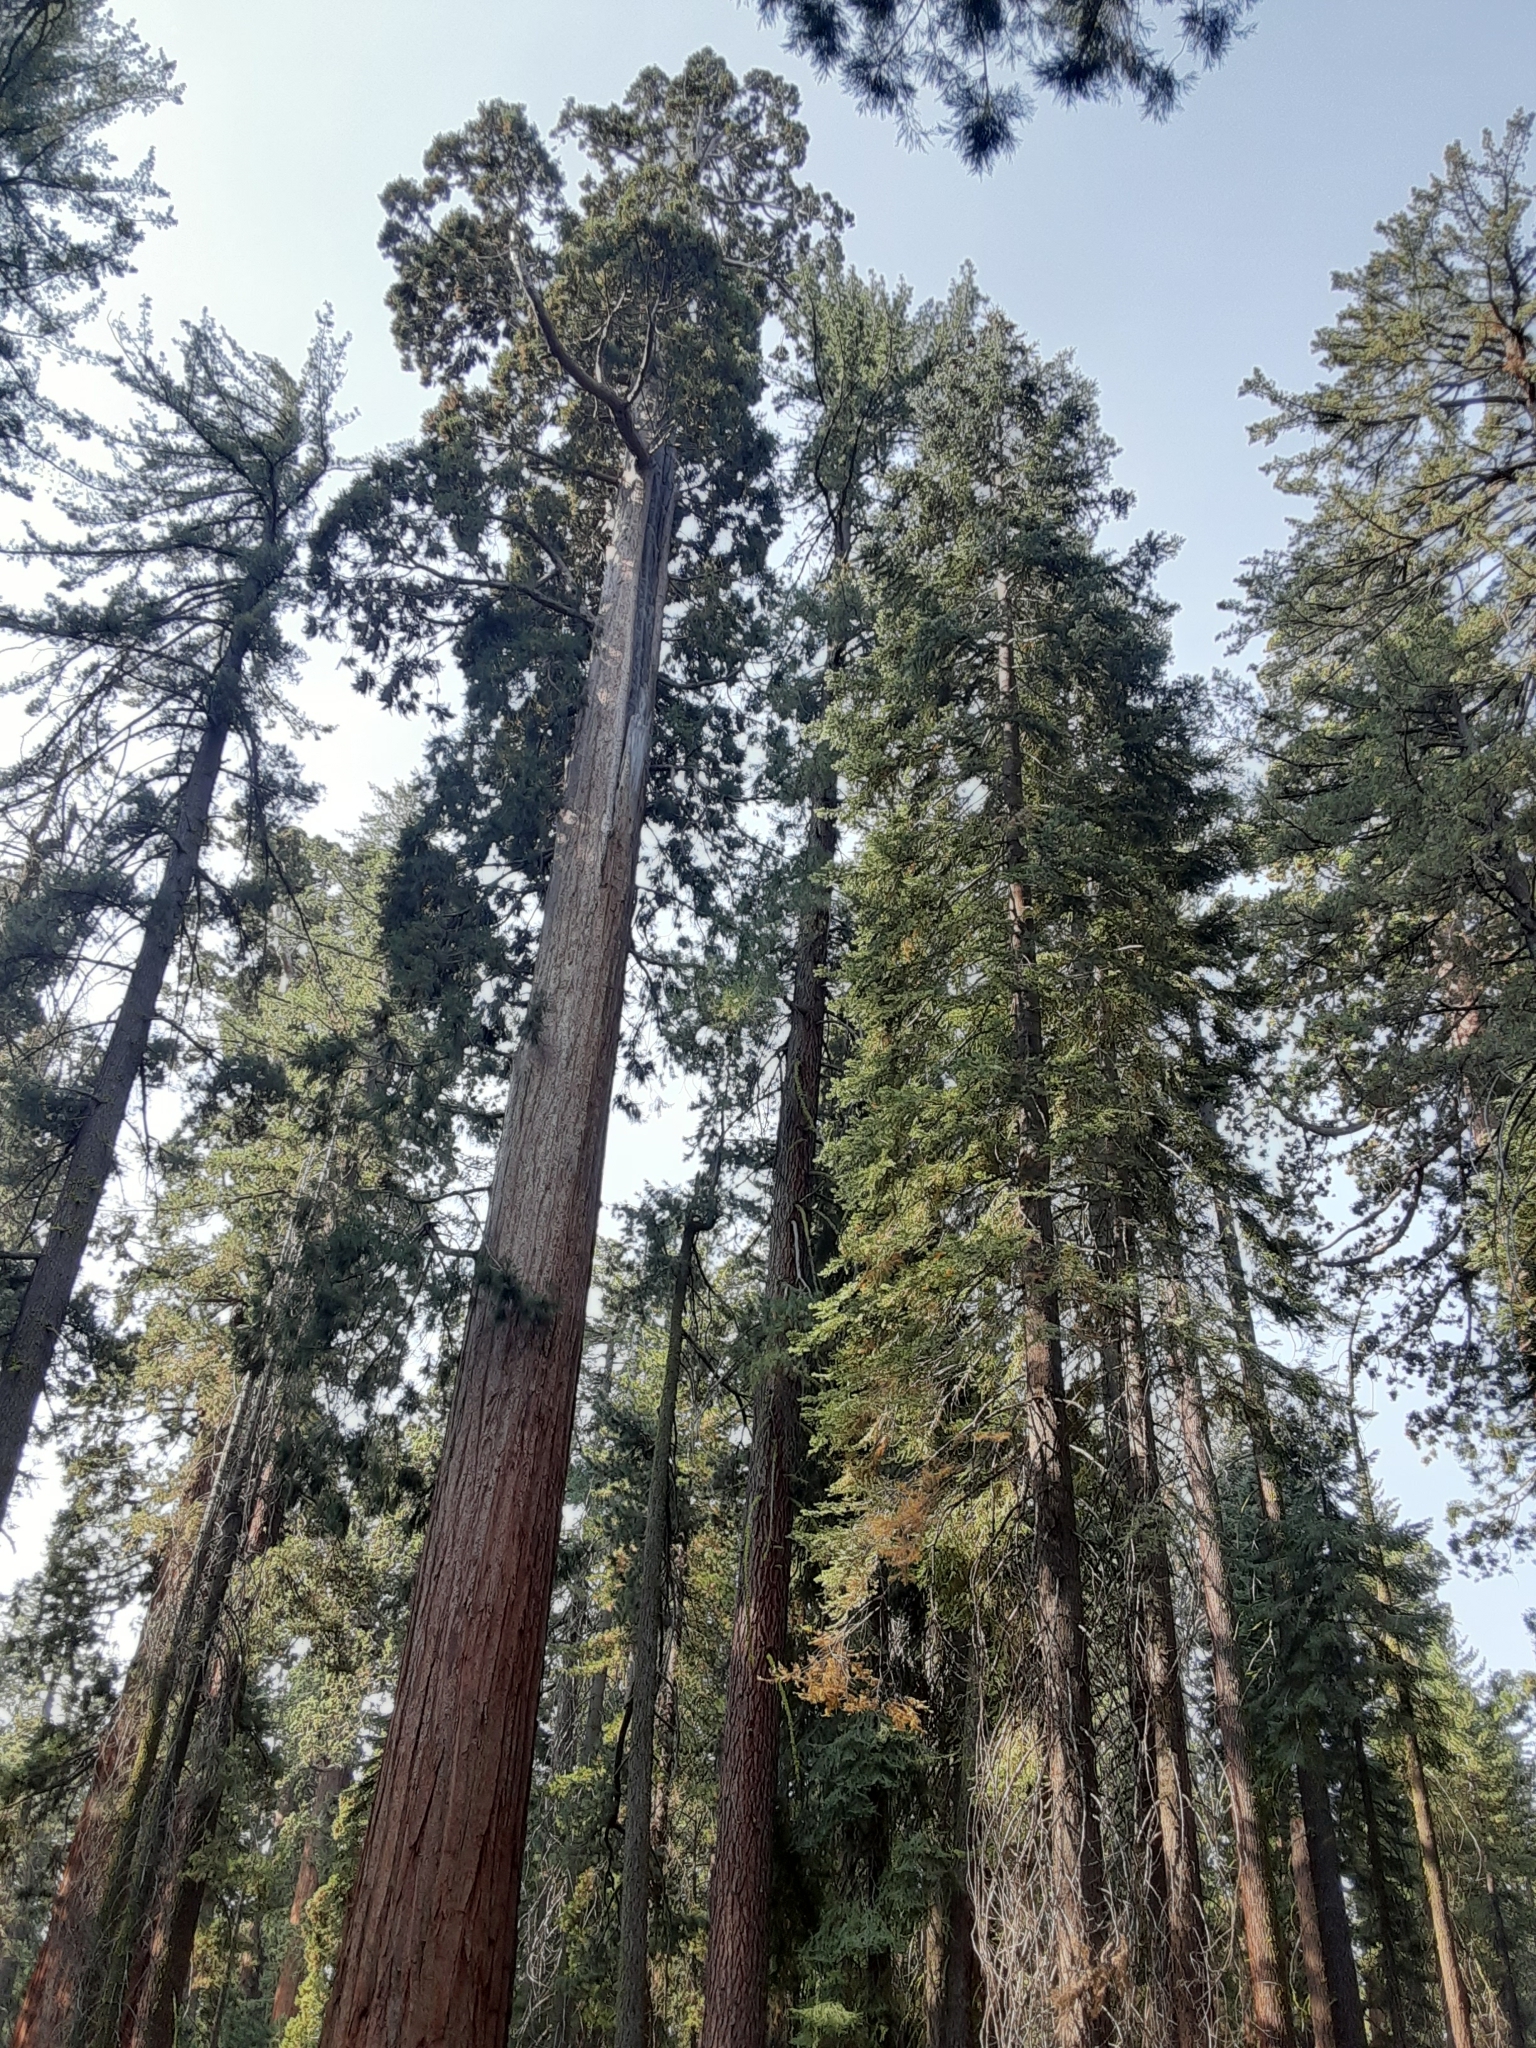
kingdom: Plantae
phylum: Tracheophyta
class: Pinopsida
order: Pinales
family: Cupressaceae
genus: Sequoiadendron
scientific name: Sequoiadendron giganteum
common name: Wellingtonia
